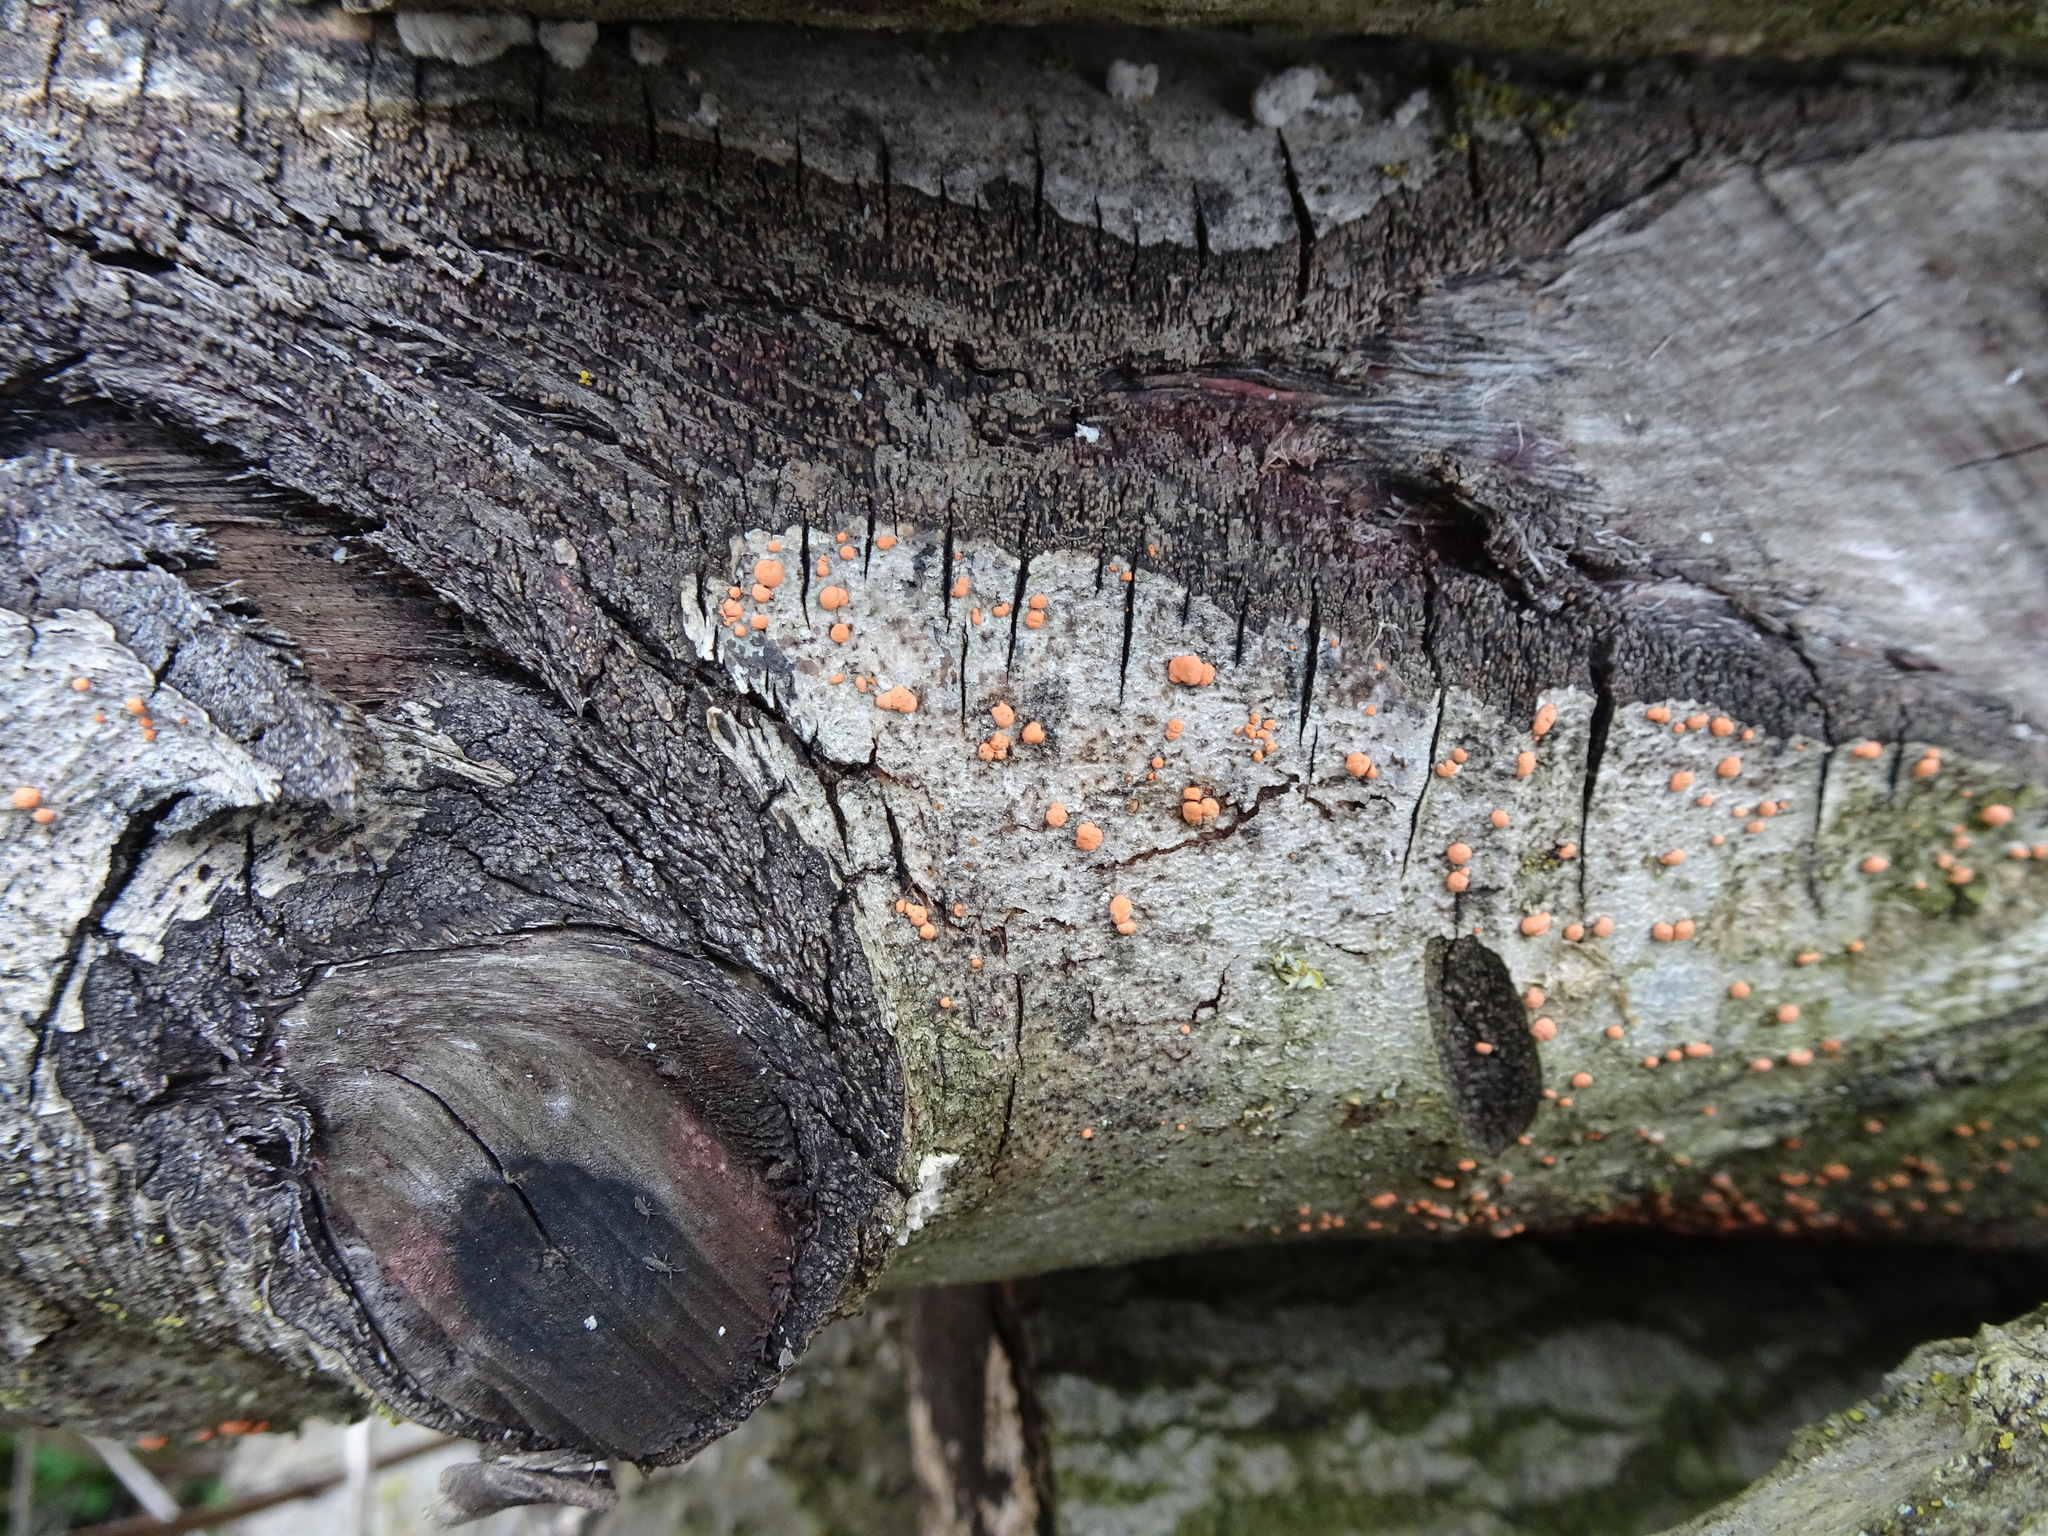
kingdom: Fungi
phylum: Ascomycota
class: Sordariomycetes
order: Hypocreales
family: Nectriaceae
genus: Nectria
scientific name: Nectria cinnabarina
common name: Coral spot
